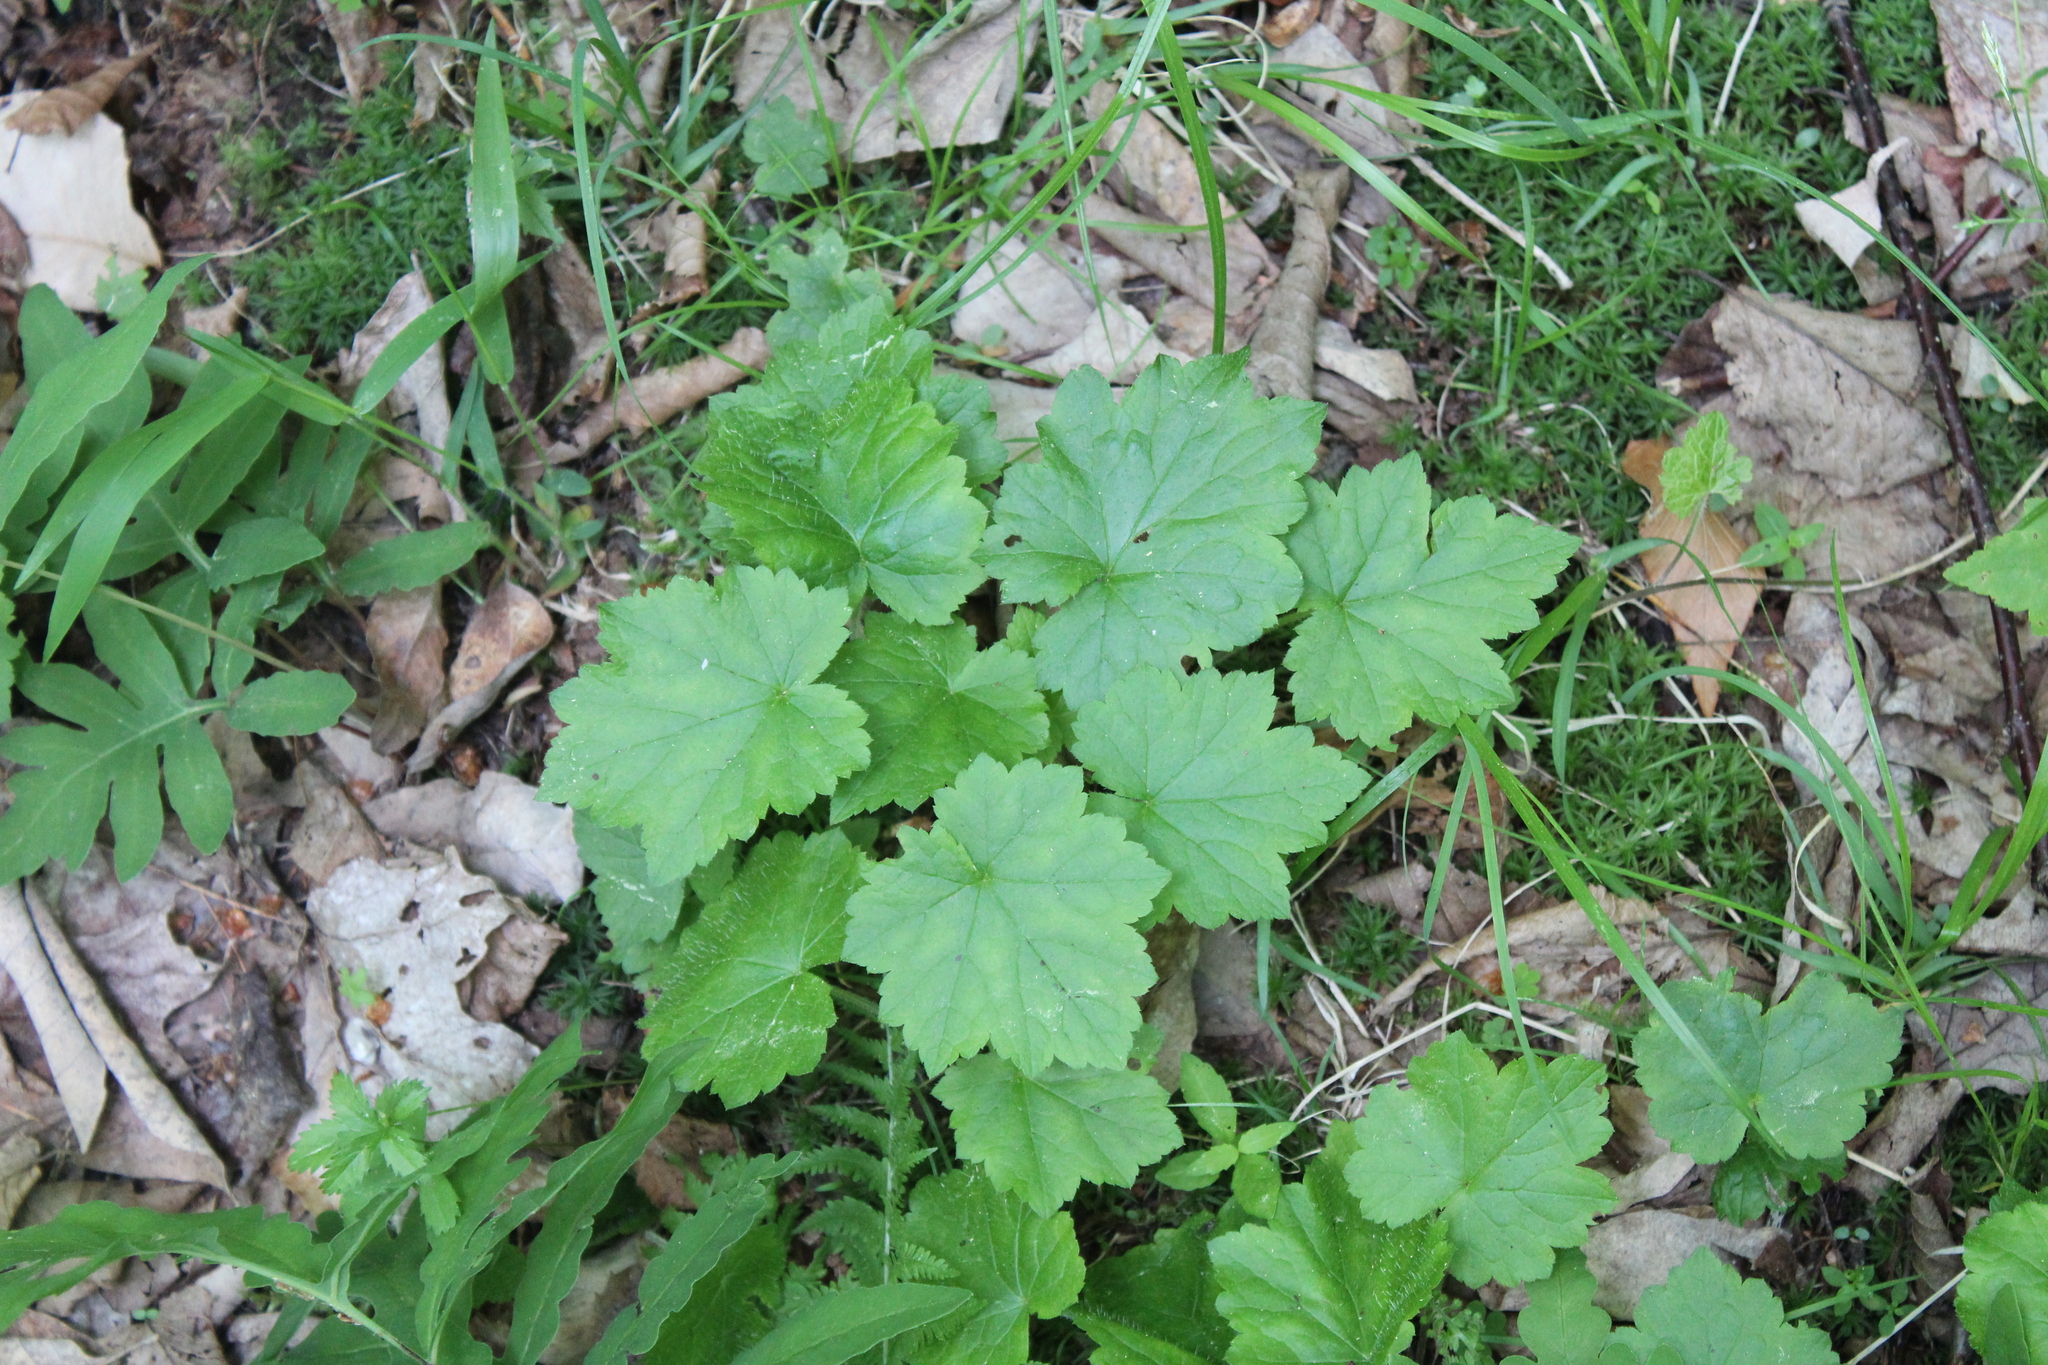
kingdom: Plantae
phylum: Tracheophyta
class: Magnoliopsida
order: Saxifragales
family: Saxifragaceae
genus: Tiarella
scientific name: Tiarella stolonifera
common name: Stoloniferous foamflower
